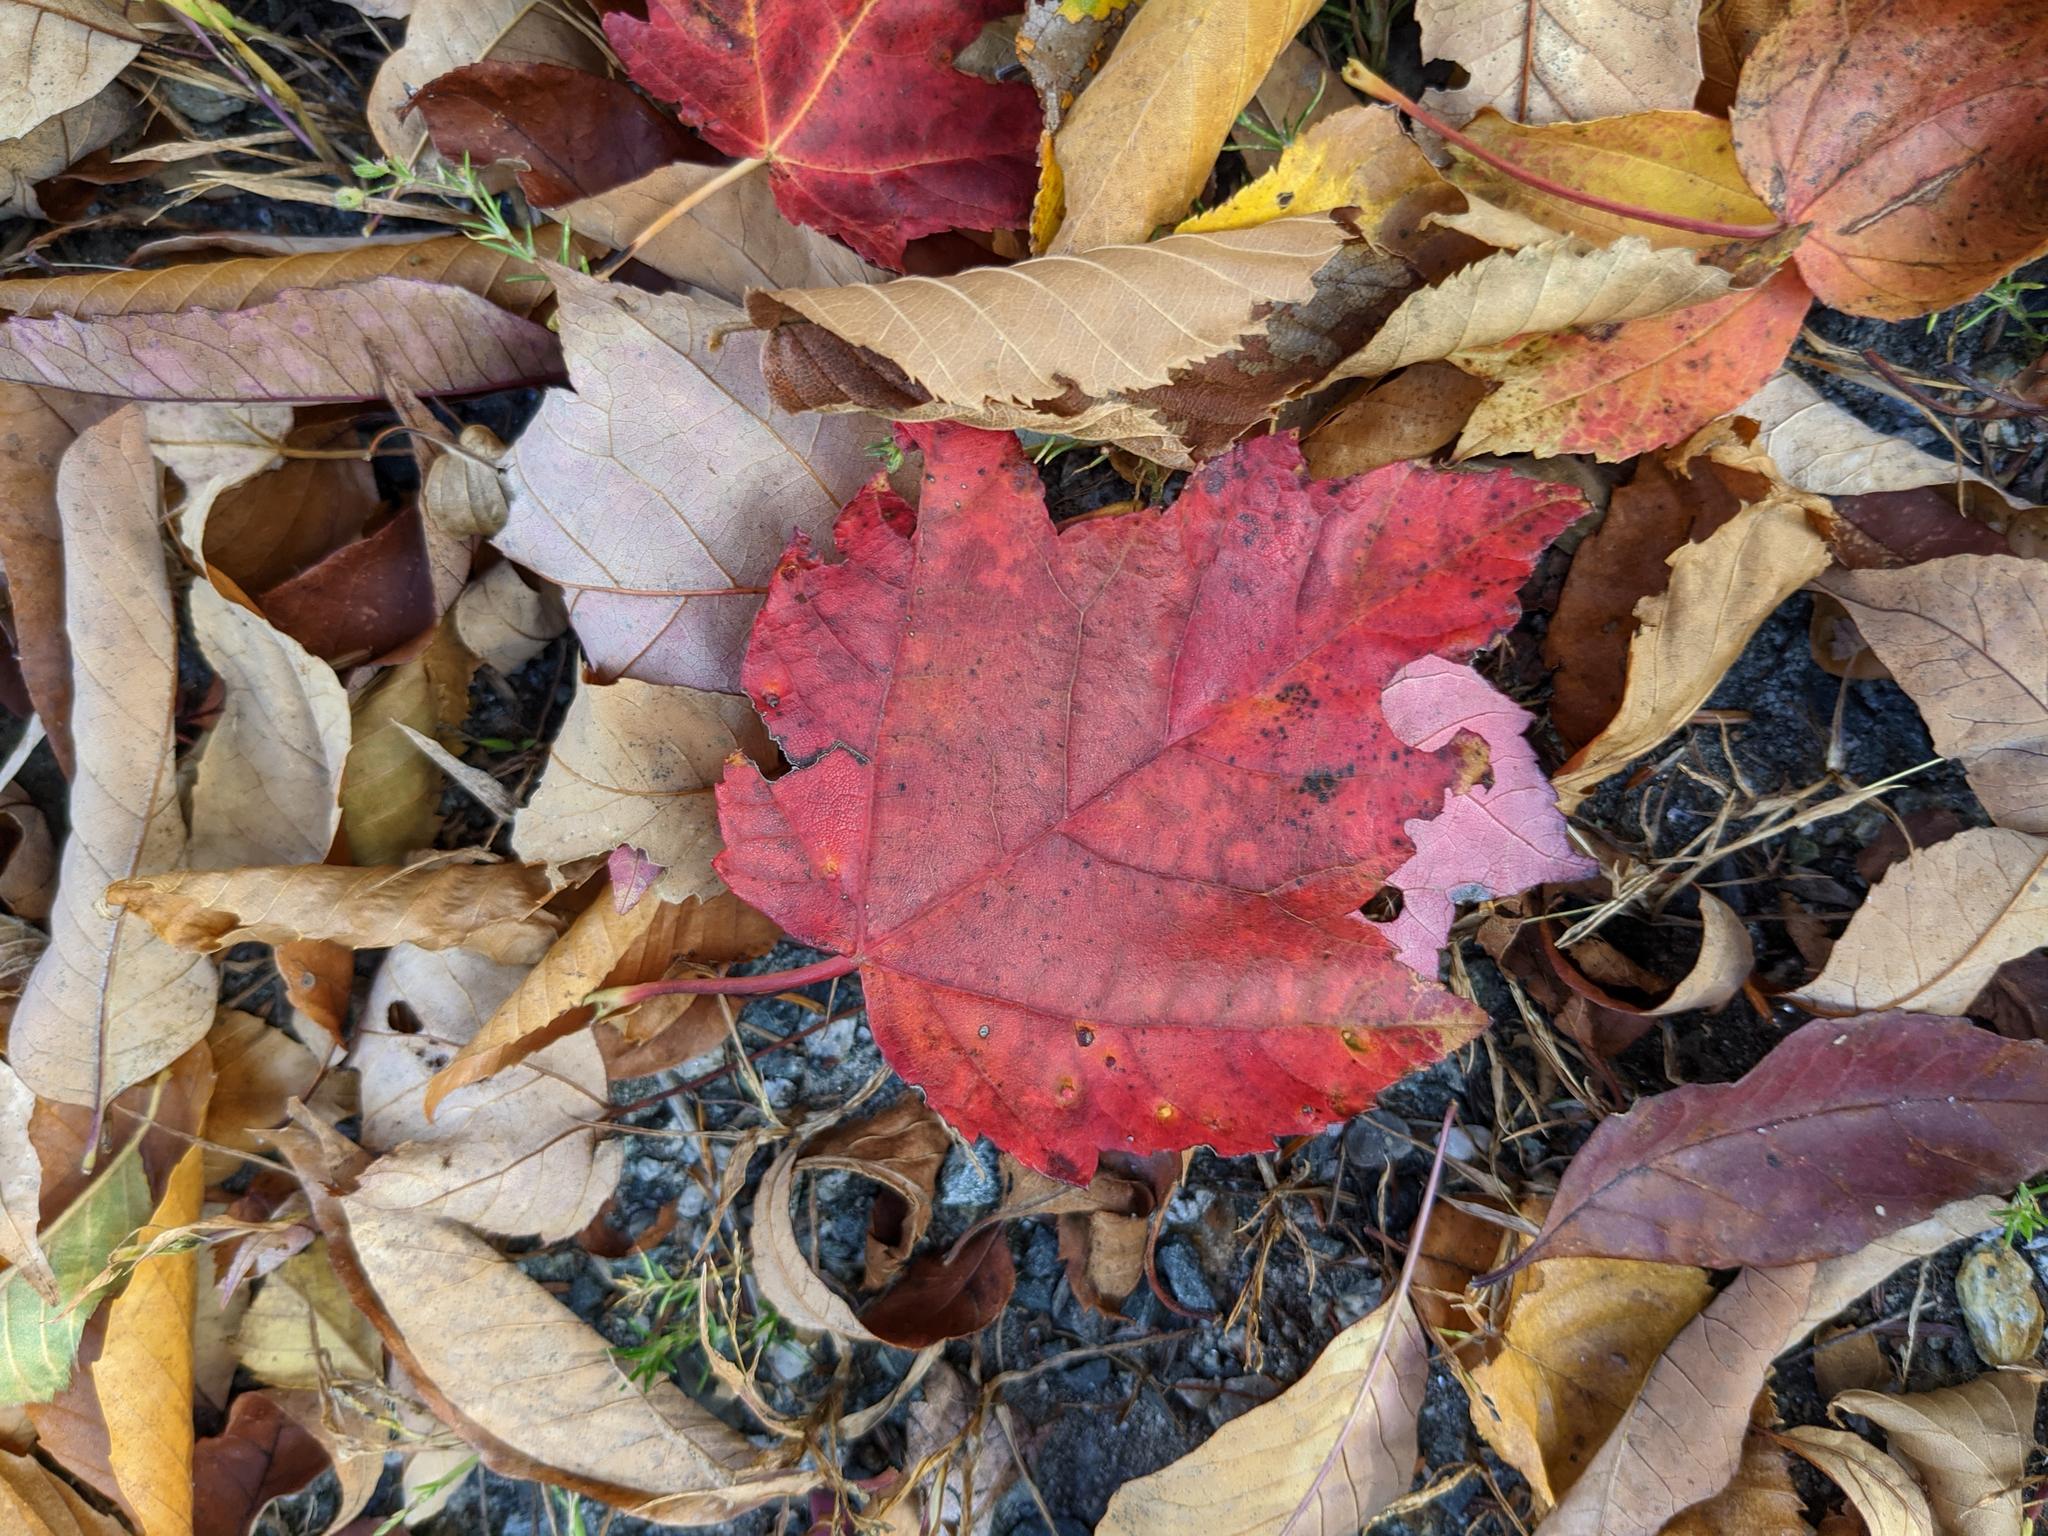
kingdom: Plantae
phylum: Tracheophyta
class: Magnoliopsida
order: Sapindales
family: Sapindaceae
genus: Acer
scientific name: Acer rubrum
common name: Red maple
